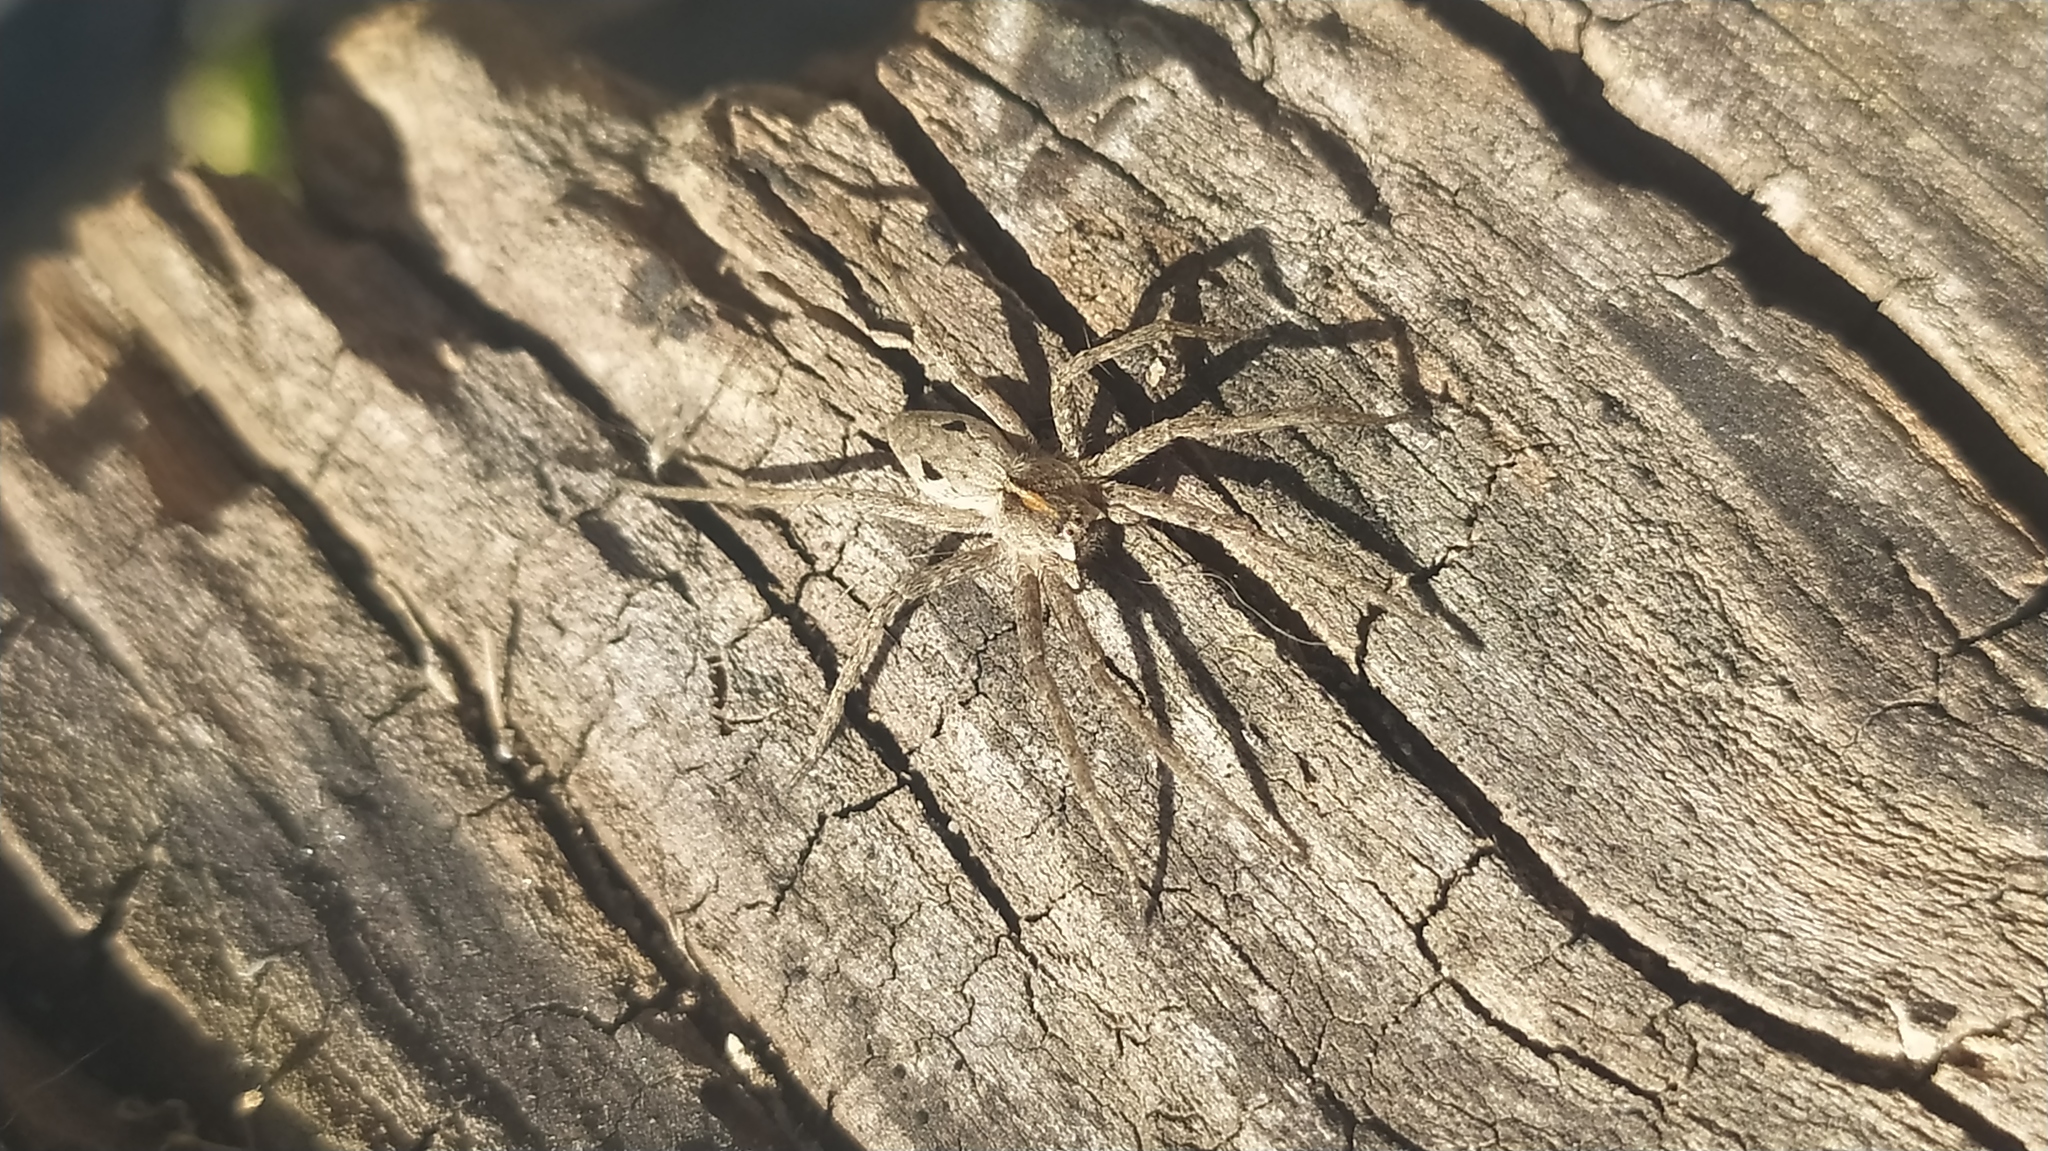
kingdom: Animalia
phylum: Arthropoda
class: Arachnida
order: Araneae
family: Pisauridae
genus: Pisaura
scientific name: Pisaura mirabilis
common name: Tent spider
